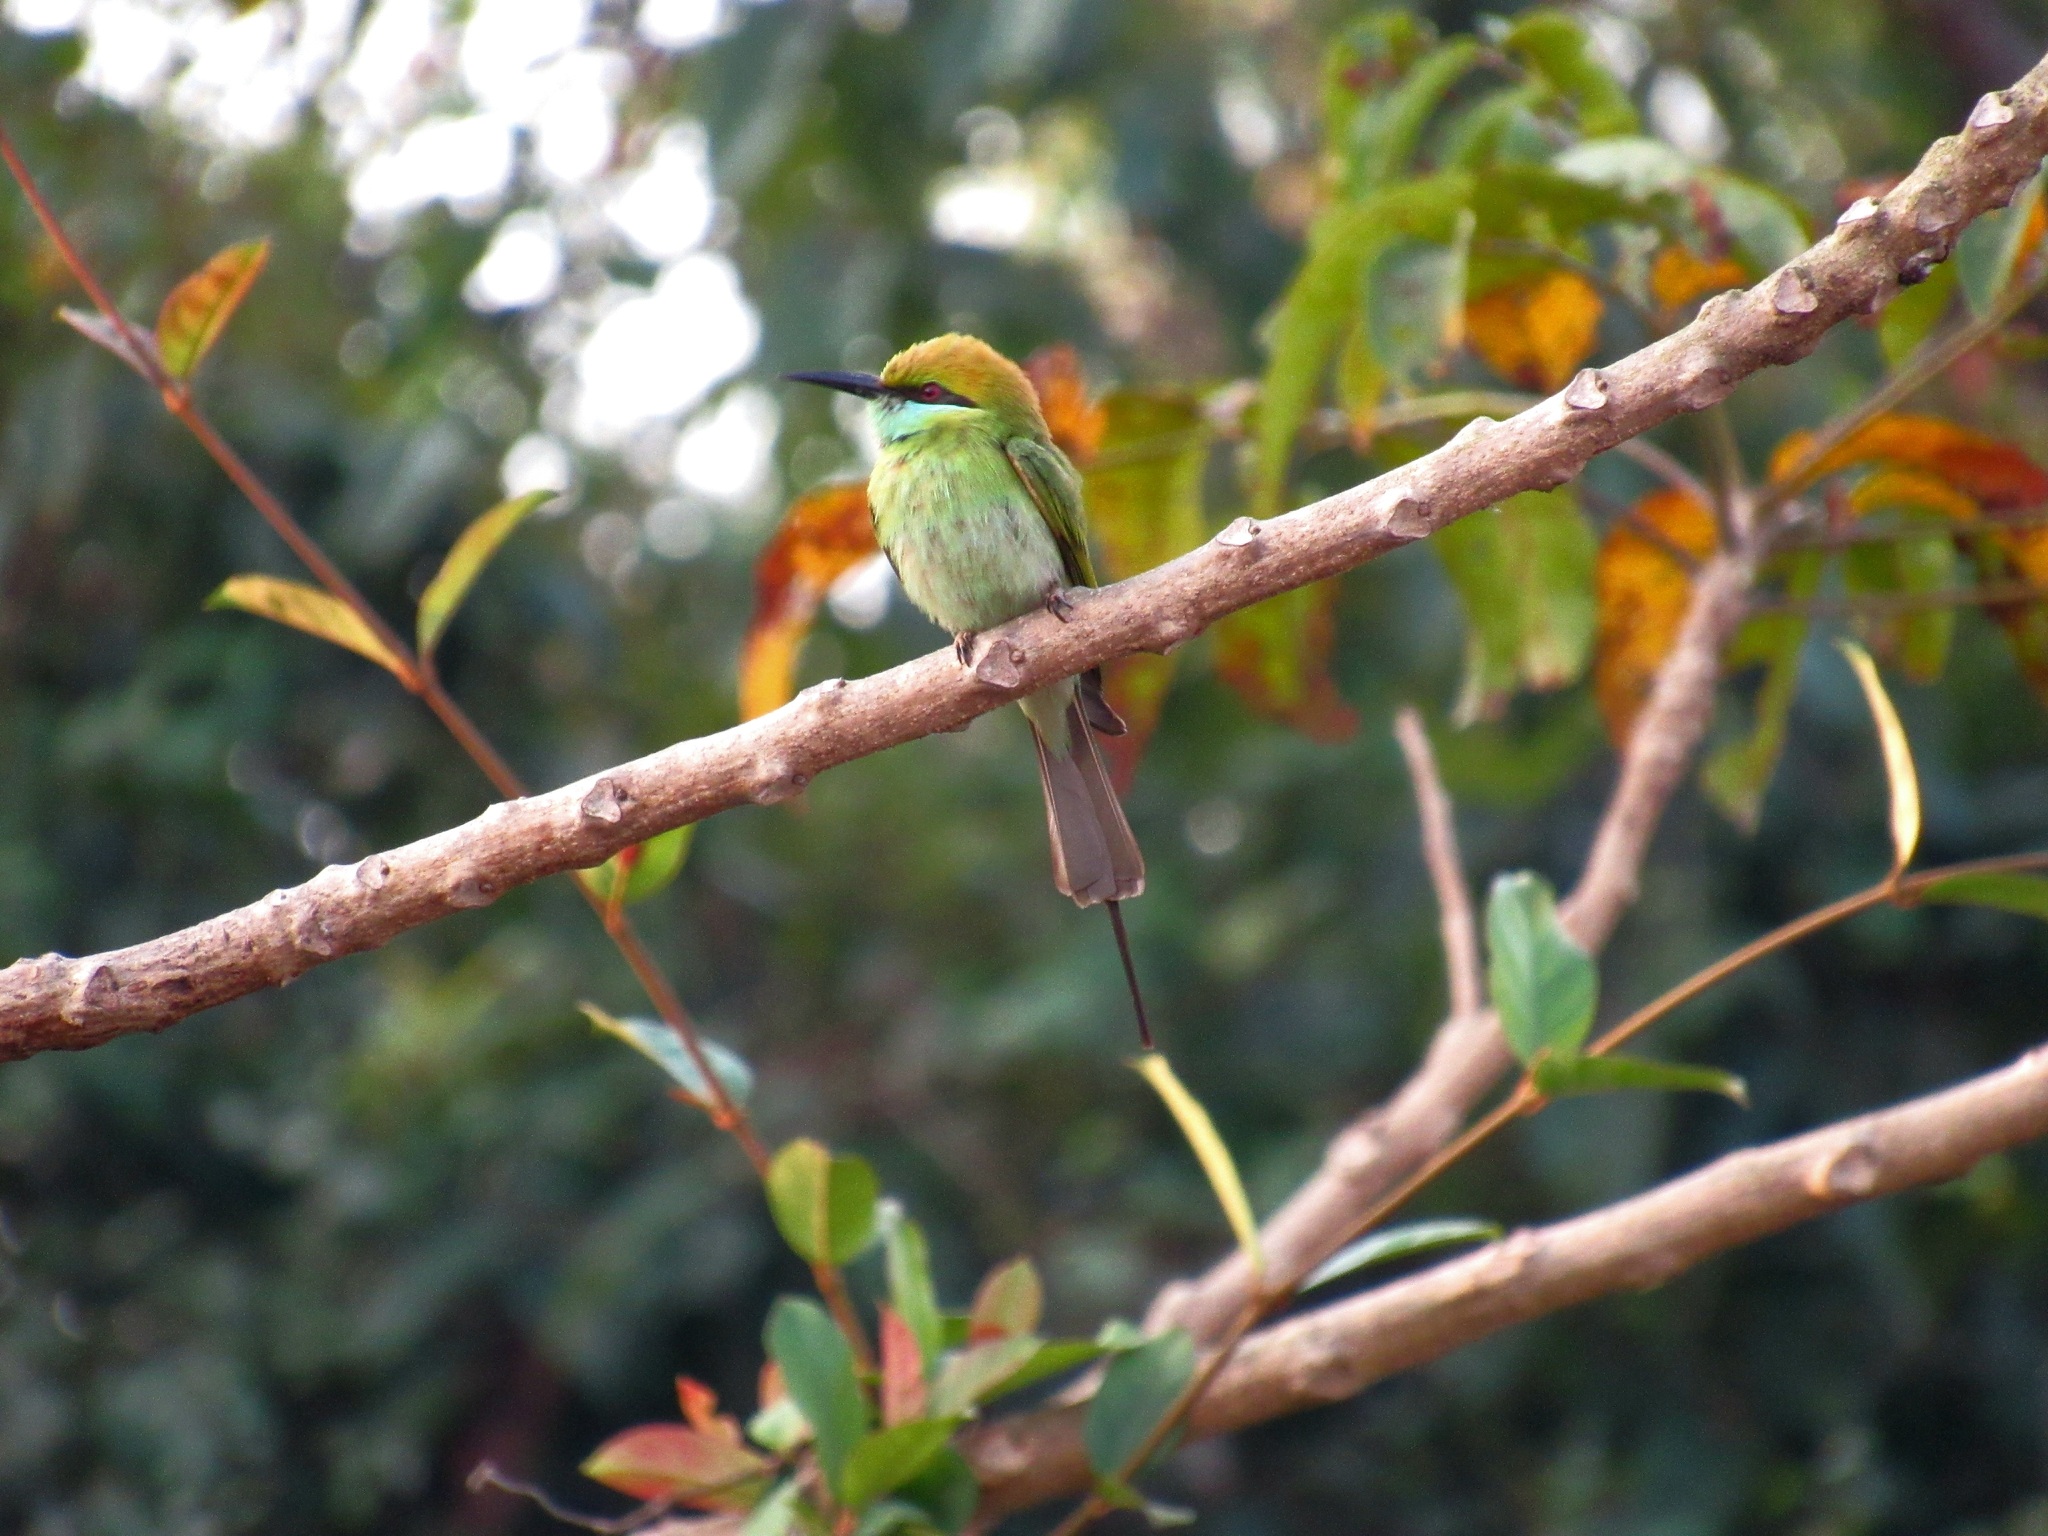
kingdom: Animalia
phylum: Chordata
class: Aves
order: Coraciiformes
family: Meropidae
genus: Merops
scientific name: Merops orientalis
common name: Green bee-eater
